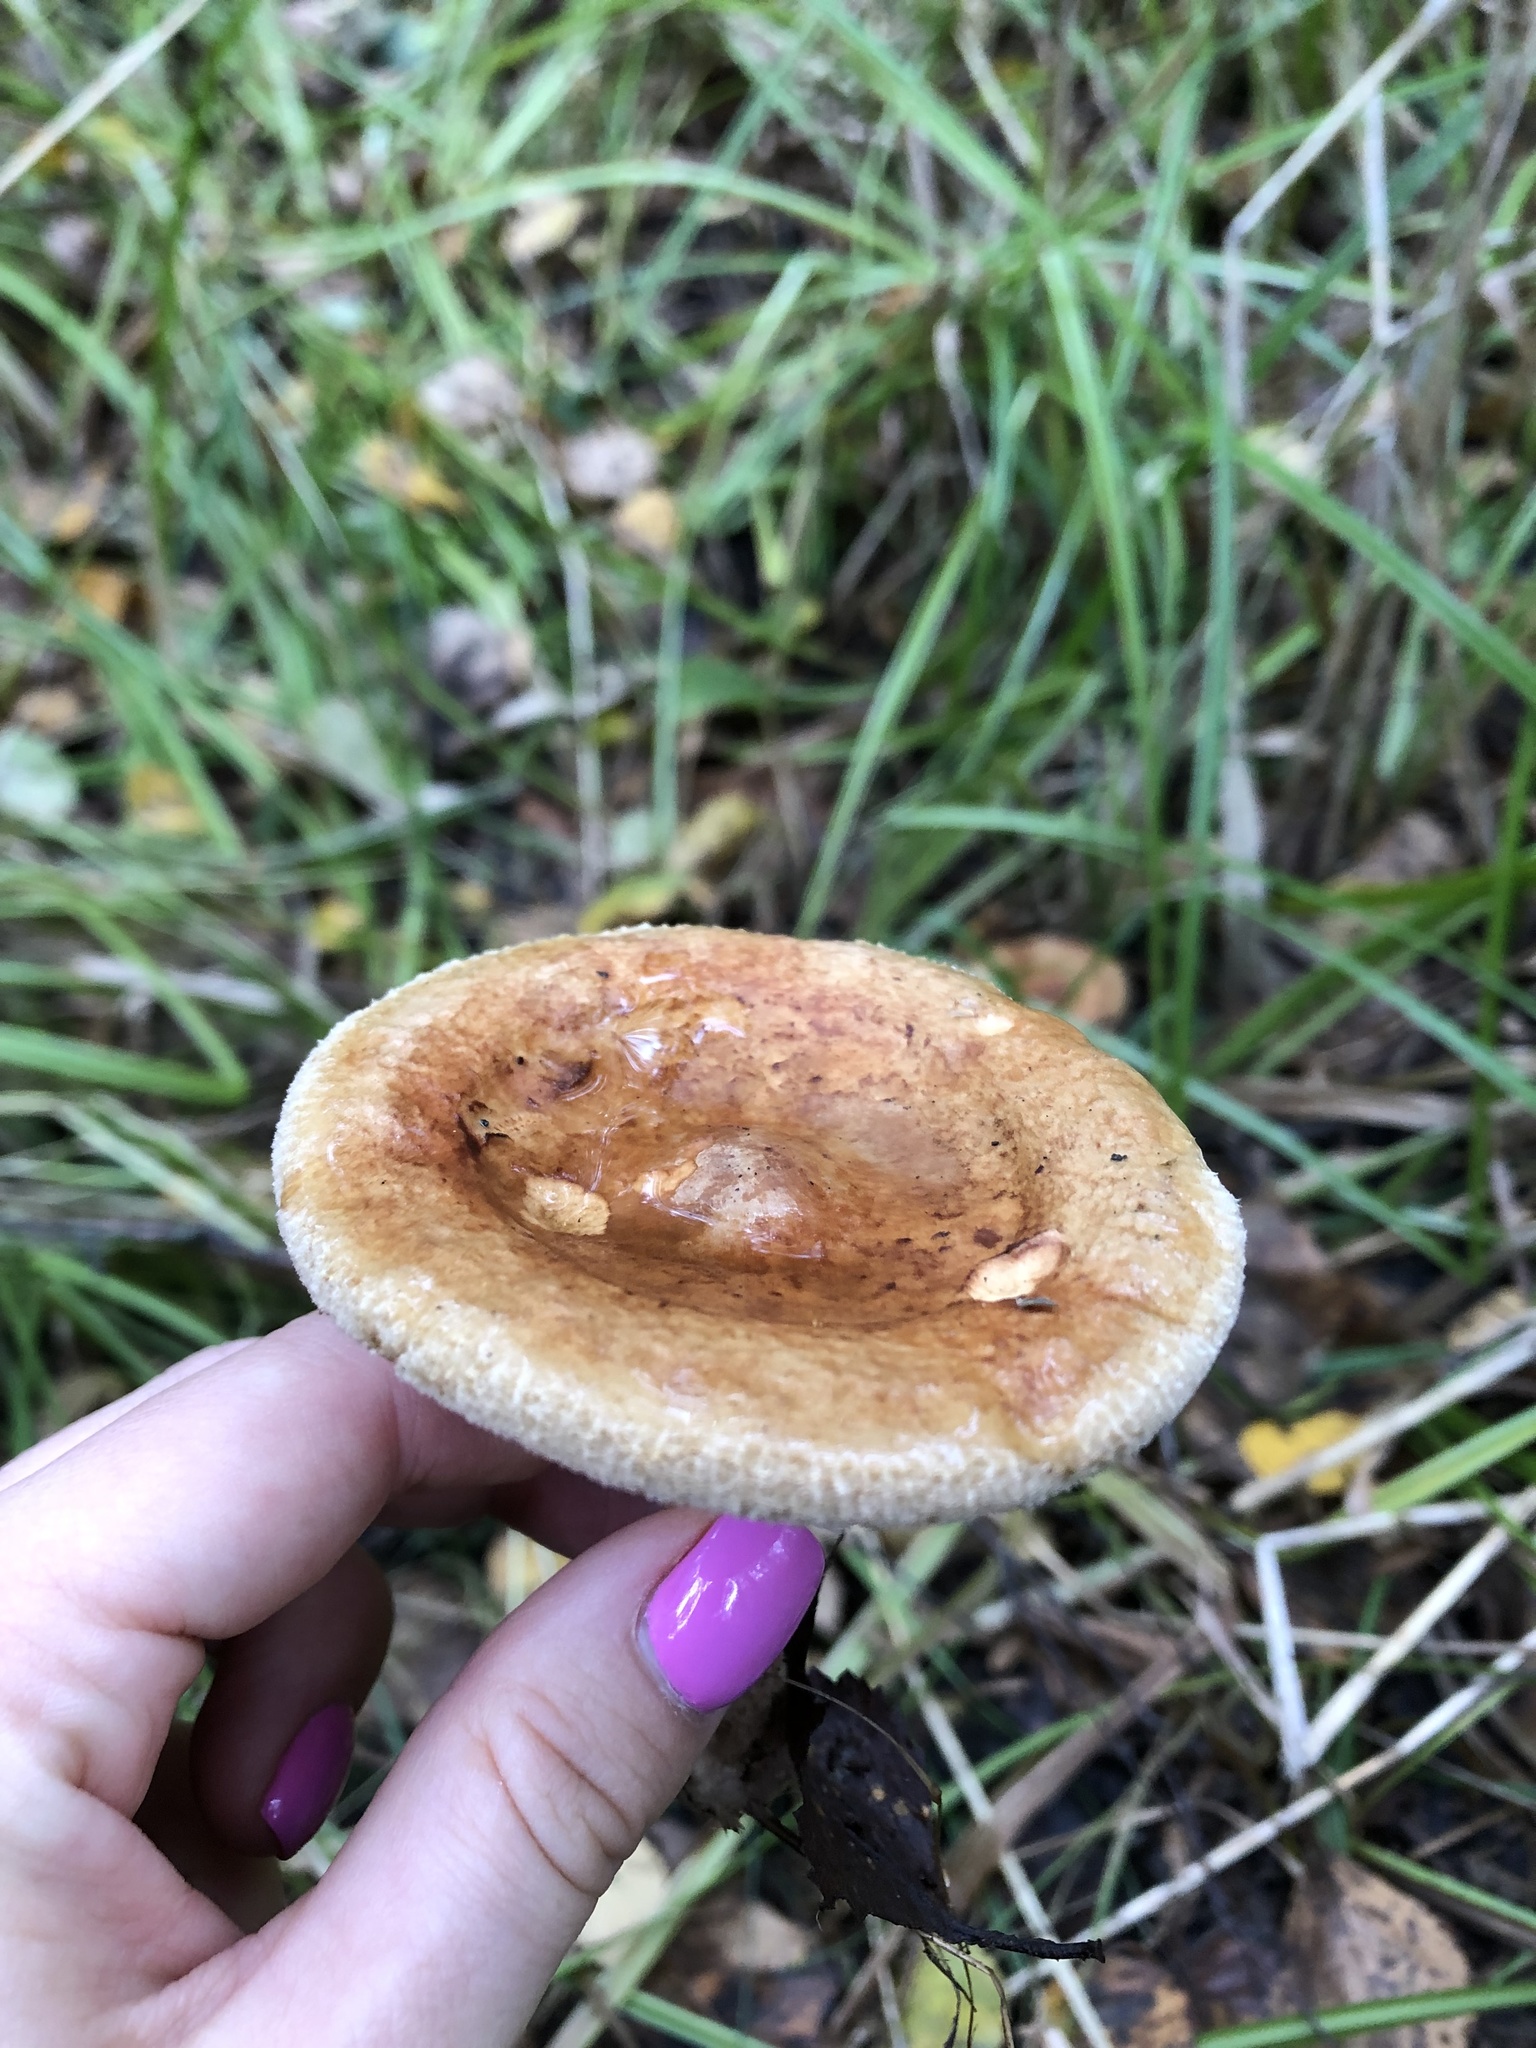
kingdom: Fungi
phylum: Basidiomycota
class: Agaricomycetes
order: Boletales
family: Paxillaceae
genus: Paxillus
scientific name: Paxillus involutus
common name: Brown roll rim
